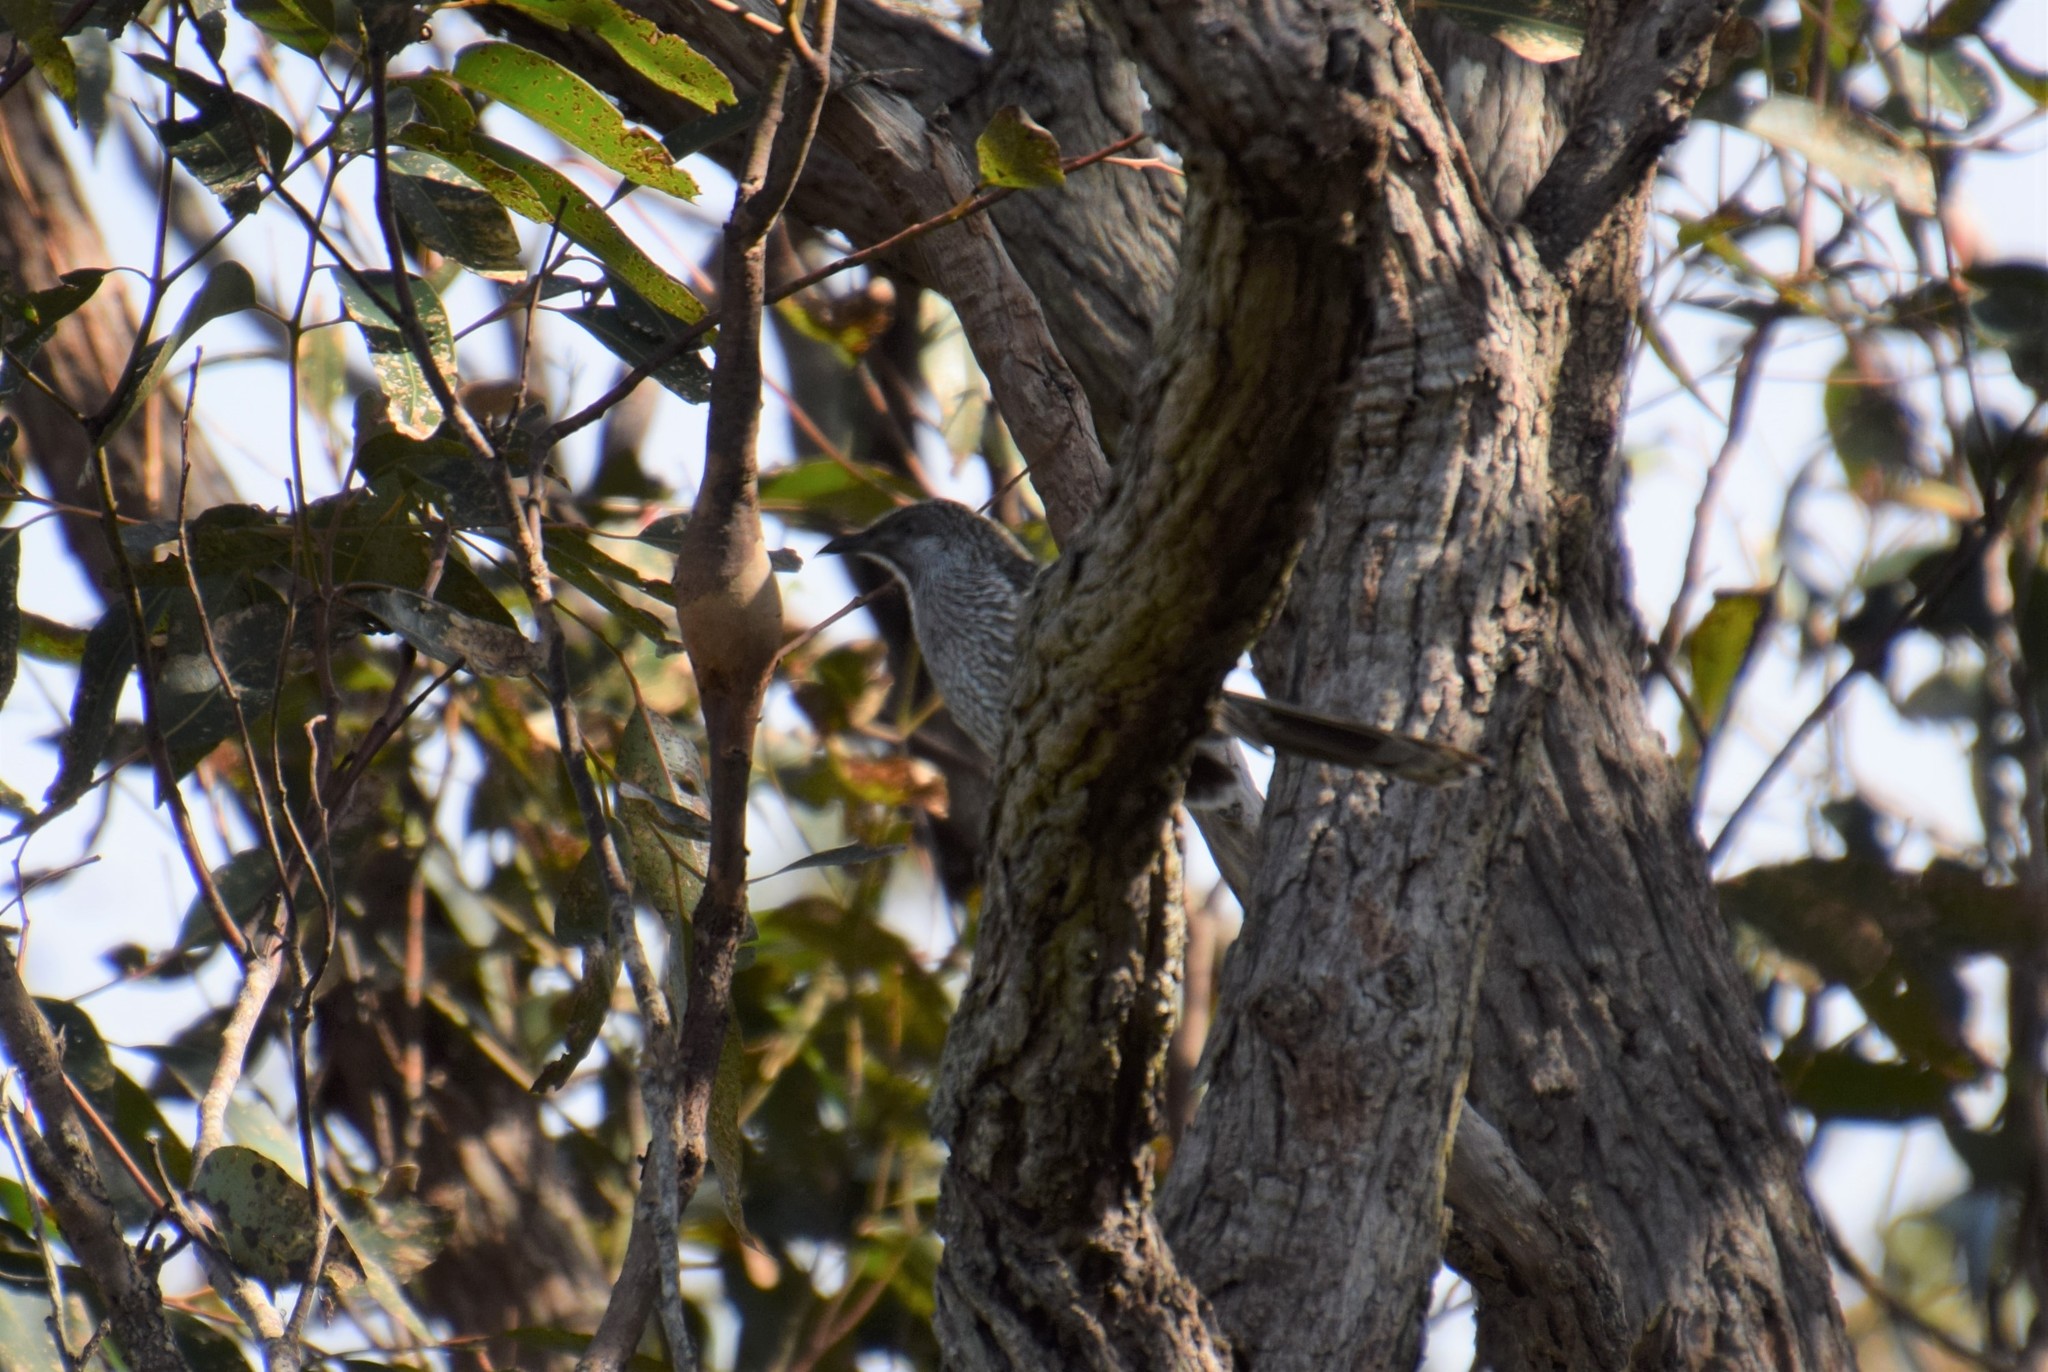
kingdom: Animalia
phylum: Chordata
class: Aves
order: Passeriformes
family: Meliphagidae
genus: Anthochaera
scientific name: Anthochaera chrysoptera
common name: Little wattlebird
